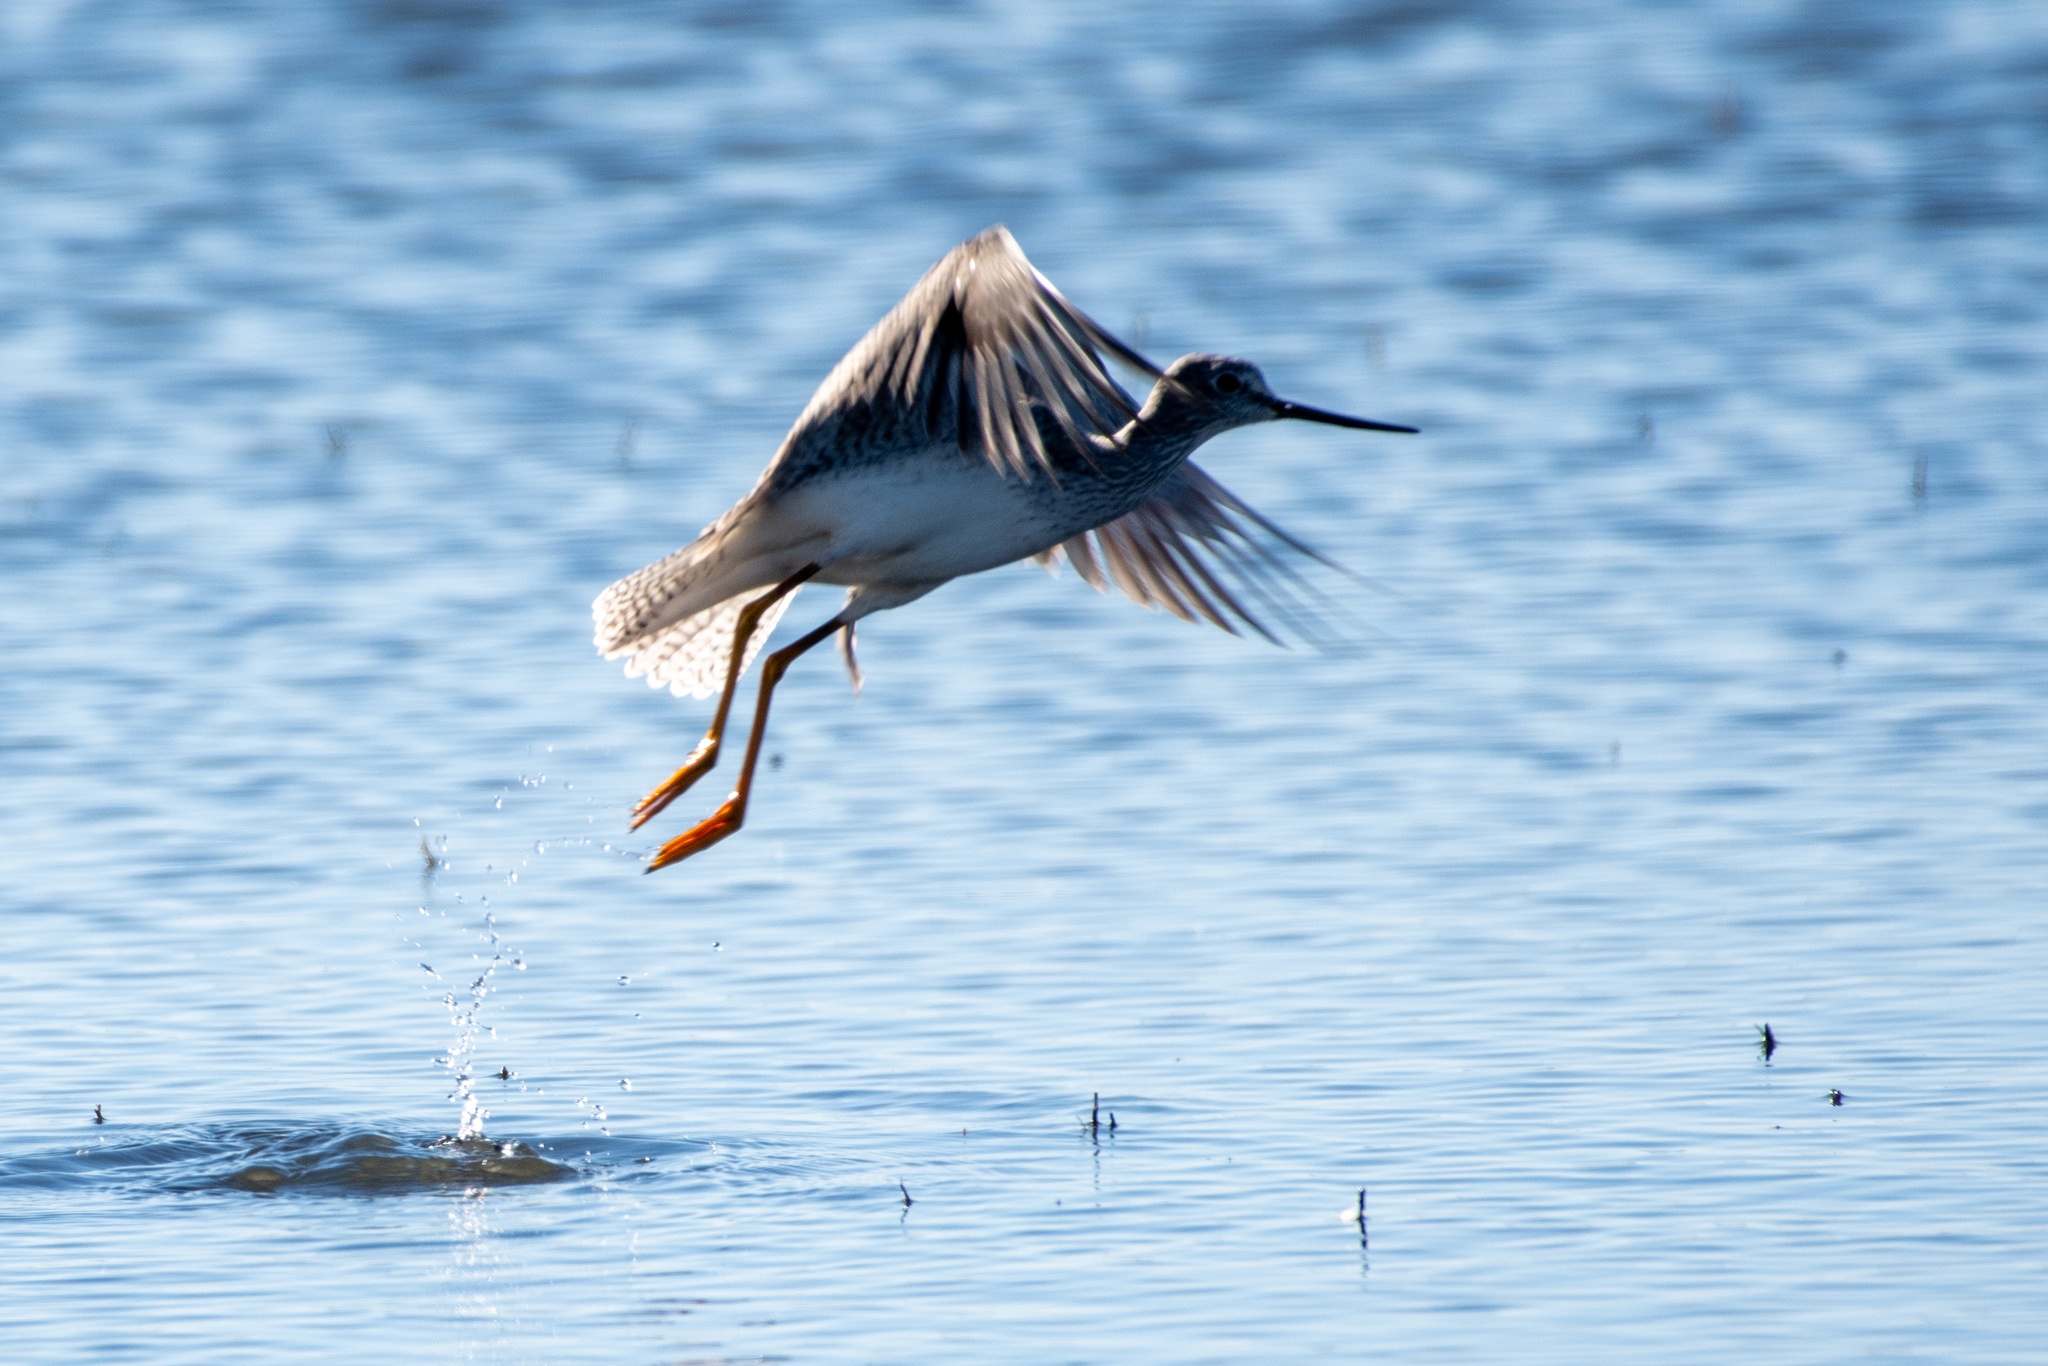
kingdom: Animalia
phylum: Chordata
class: Aves
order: Charadriiformes
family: Scolopacidae
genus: Tringa
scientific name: Tringa melanoleuca
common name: Greater yellowlegs
